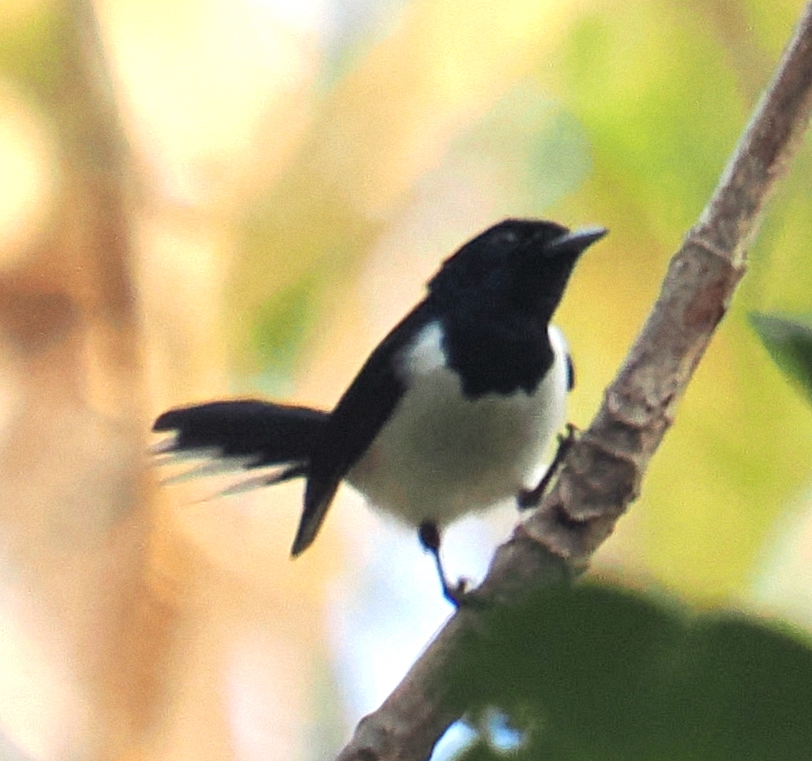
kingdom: Animalia
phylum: Chordata
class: Aves
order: Passeriformes
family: Monarchidae
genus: Symposiachrus
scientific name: Symposiachrus everetti
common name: White-tipped monarch
